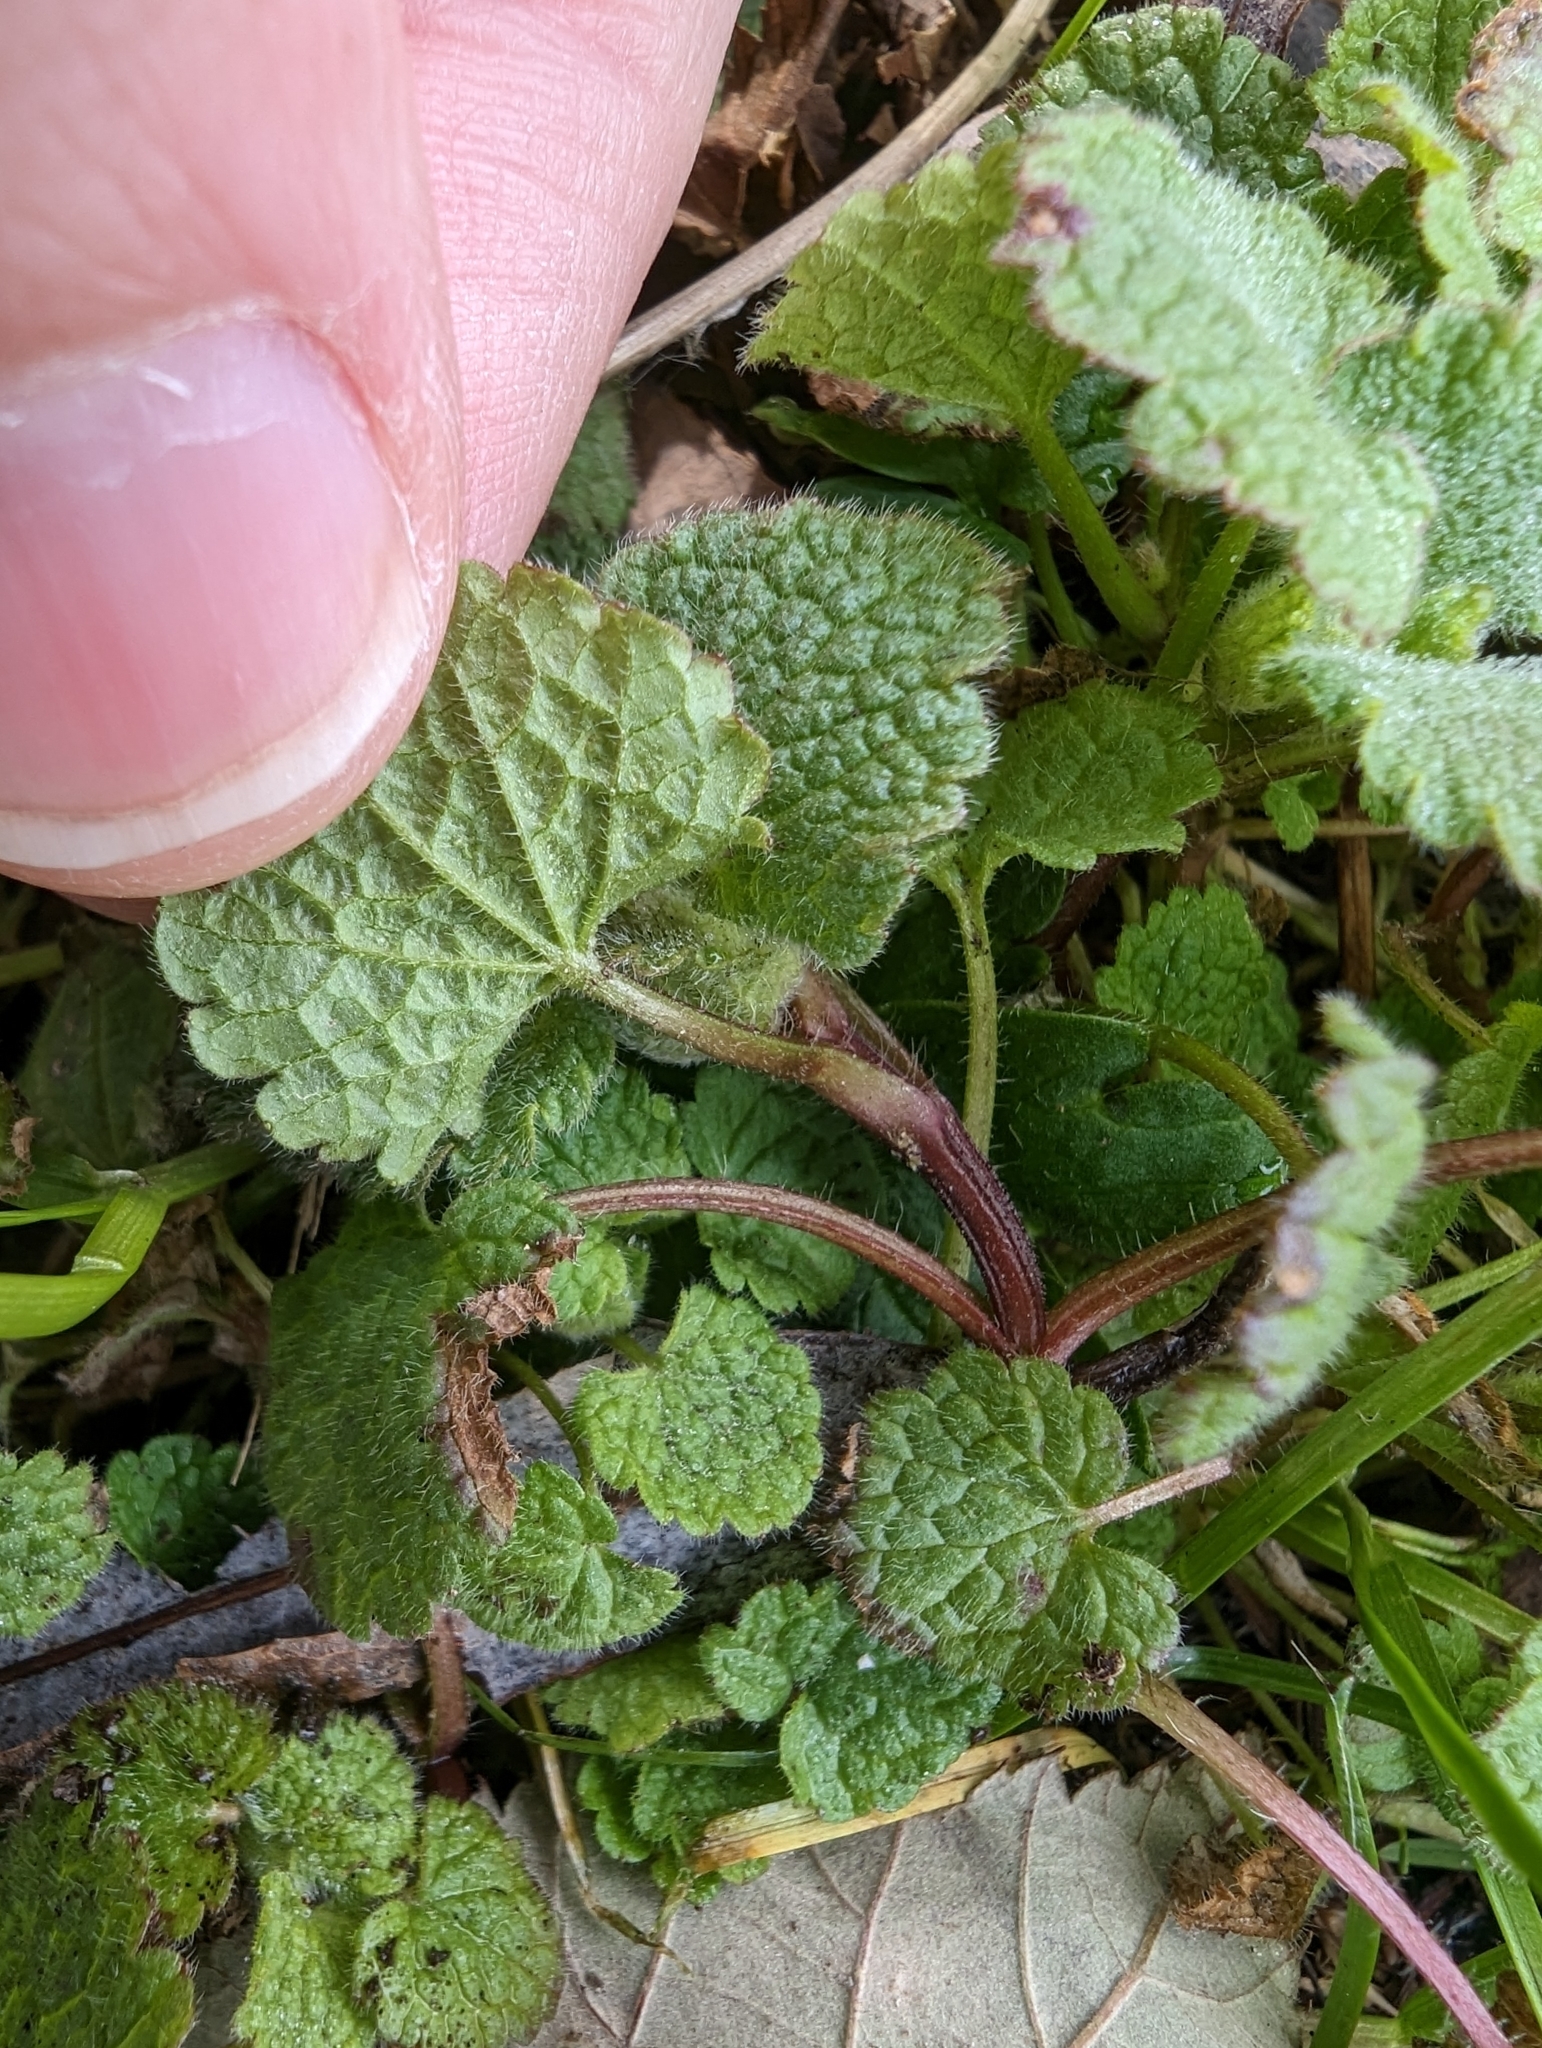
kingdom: Plantae
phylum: Tracheophyta
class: Magnoliopsida
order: Lamiales
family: Lamiaceae
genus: Lamium
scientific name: Lamium purpureum
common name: Red dead-nettle
